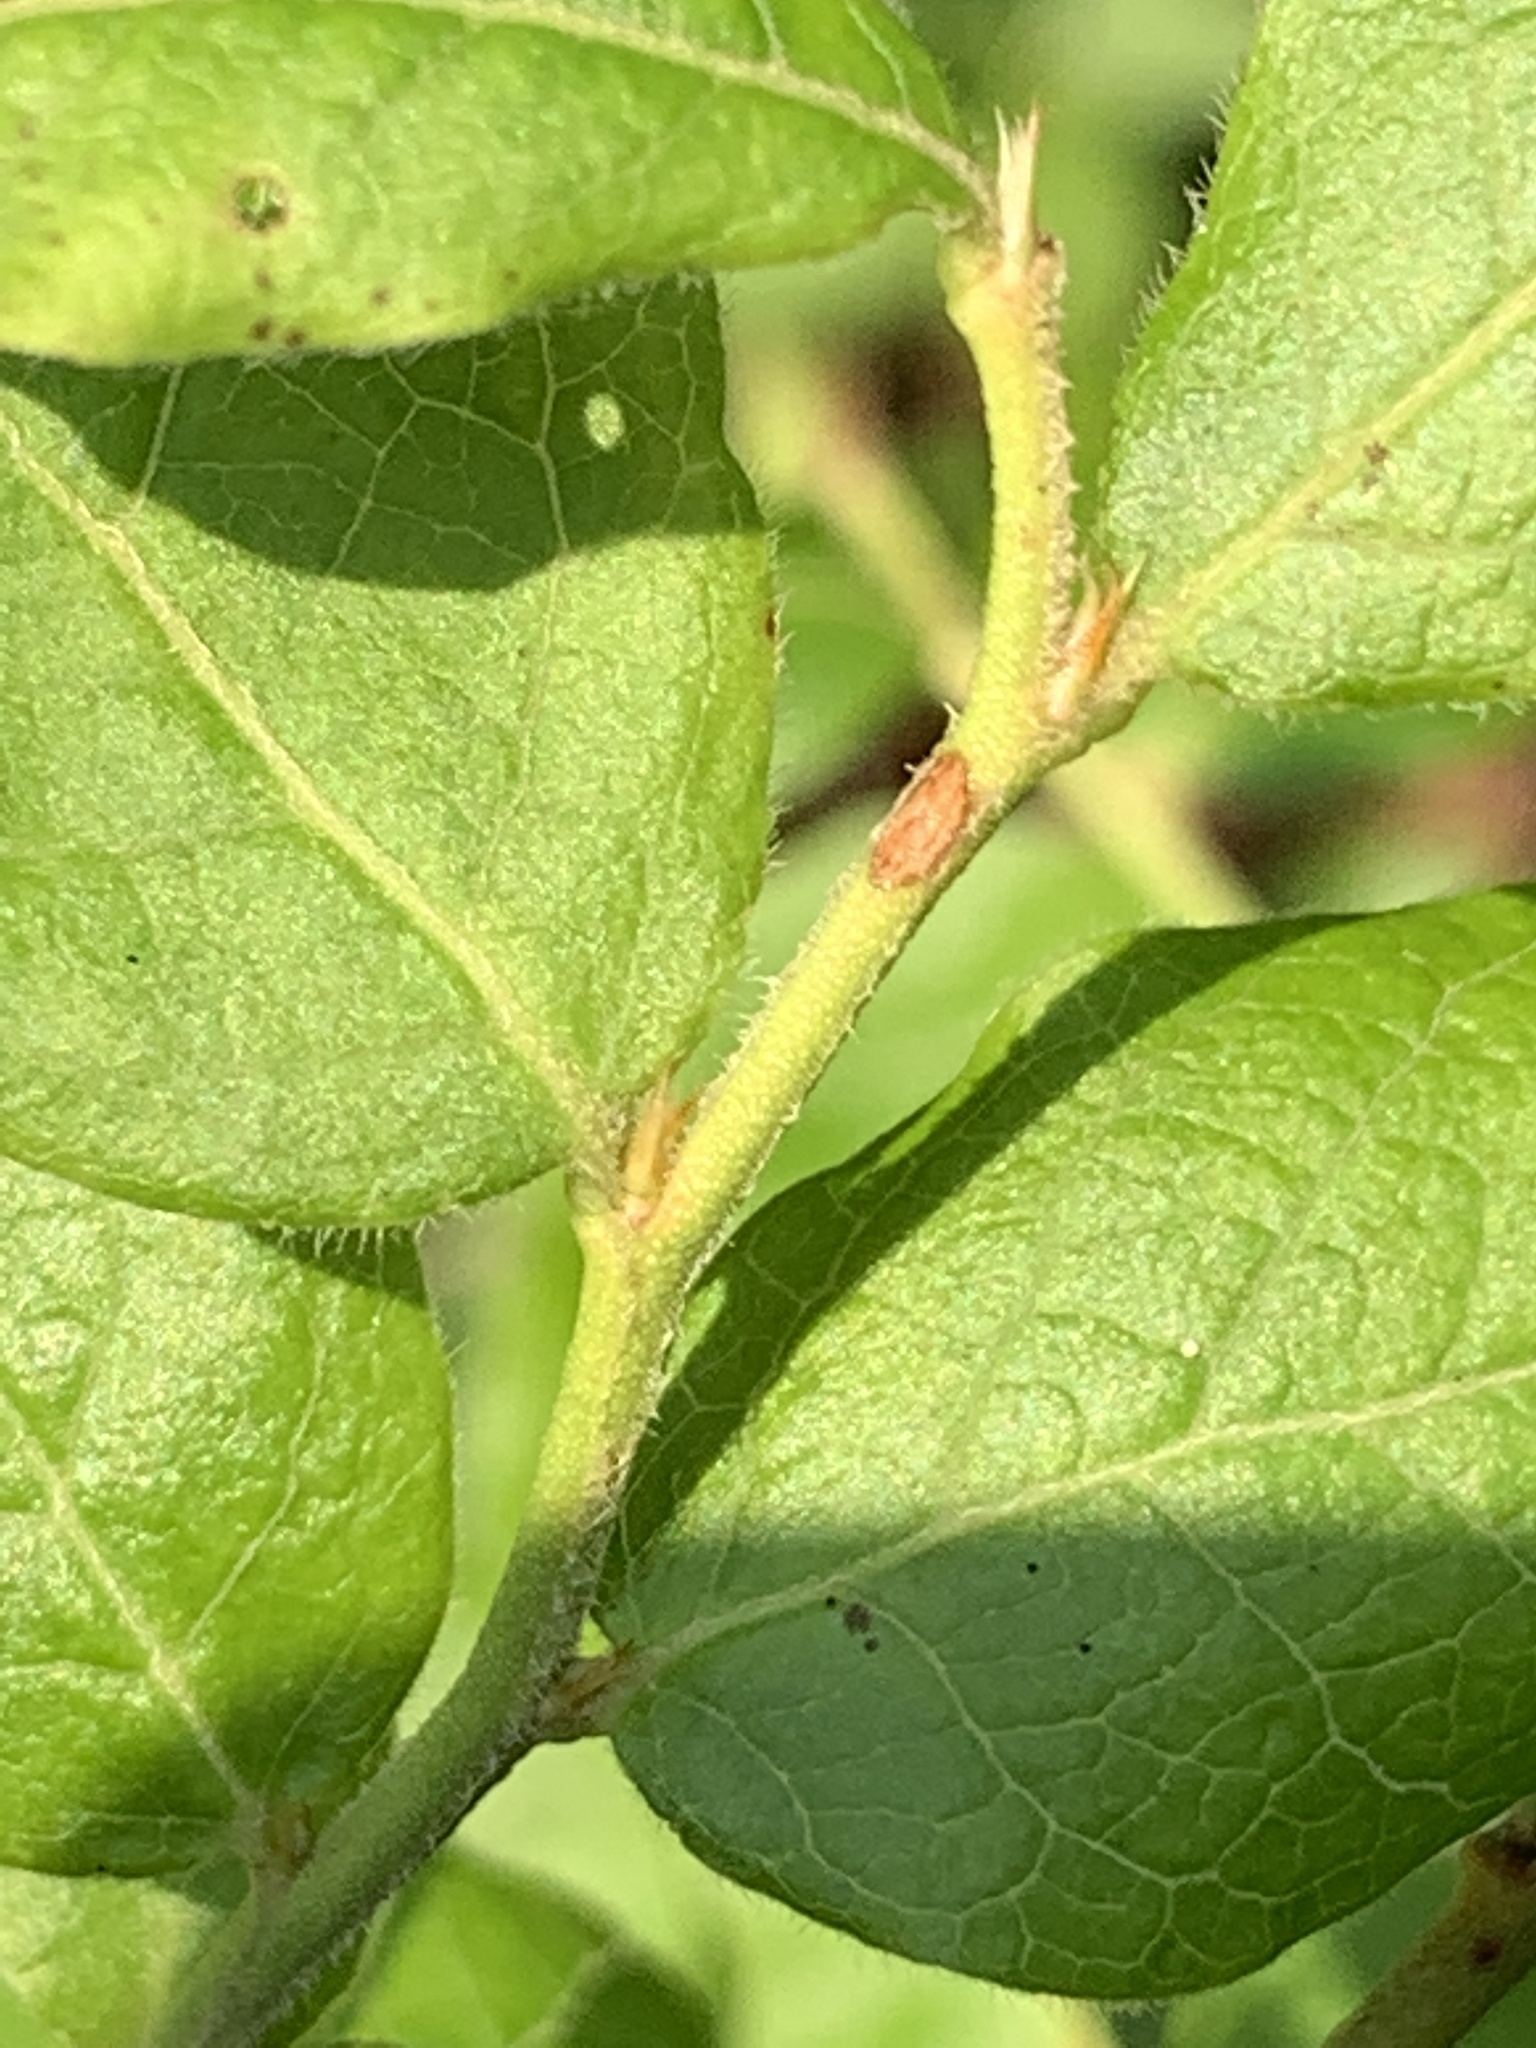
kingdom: Plantae
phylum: Tracheophyta
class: Magnoliopsida
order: Ericales
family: Ericaceae
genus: Vaccinium
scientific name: Vaccinium myrtilloides
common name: Canada blueberry
